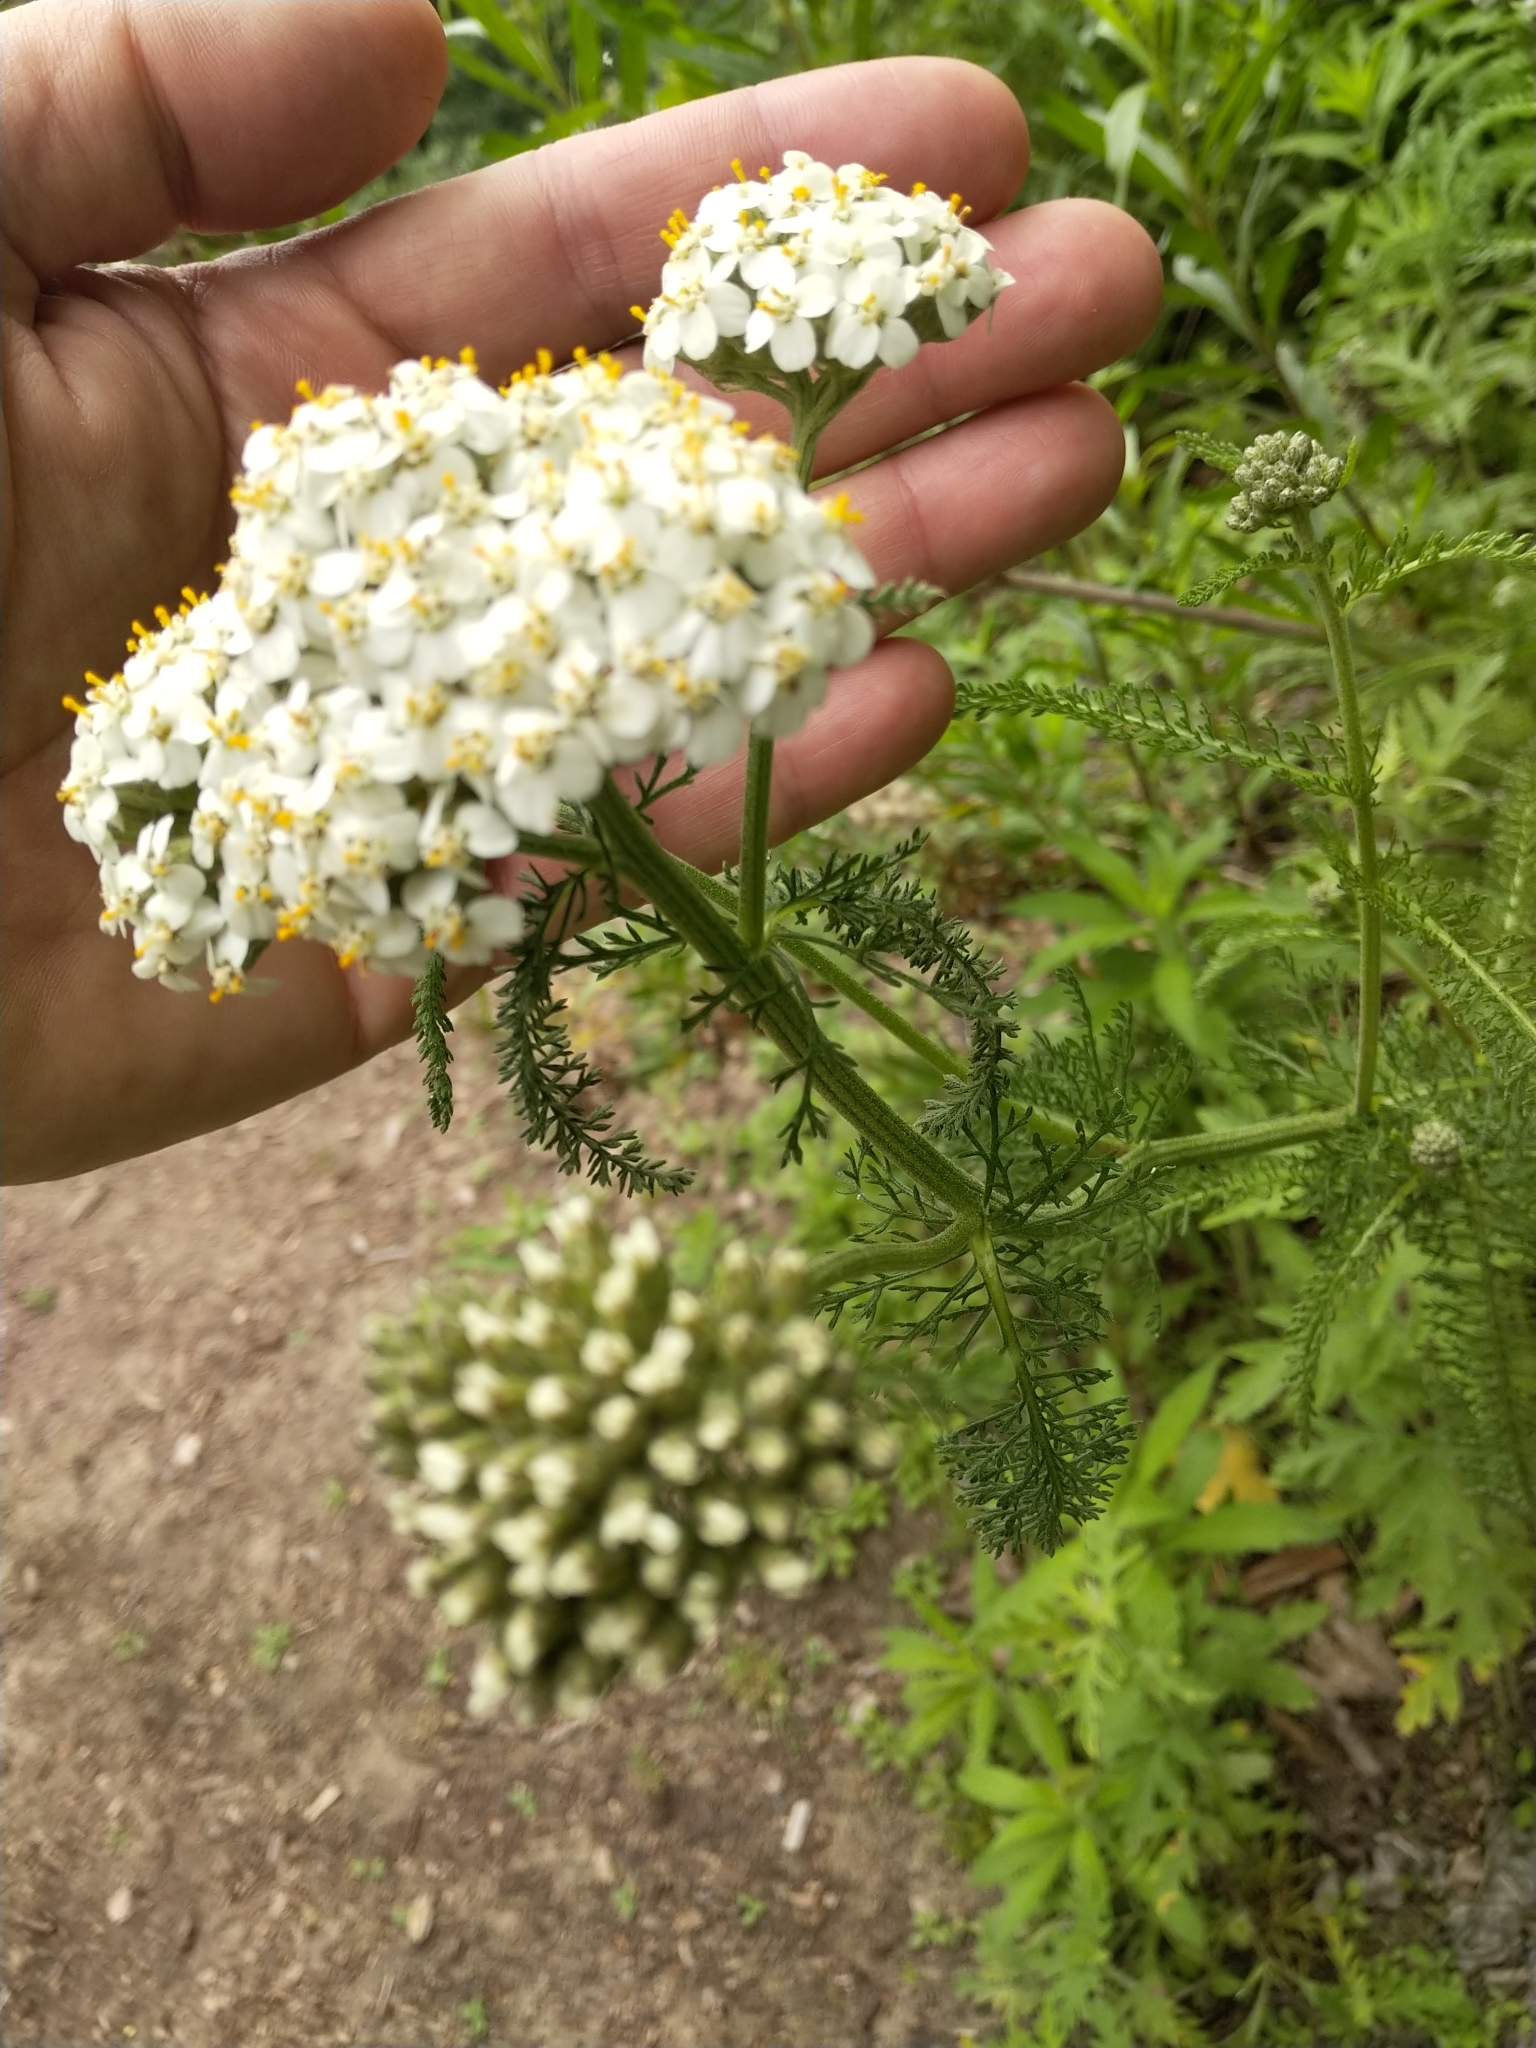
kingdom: Plantae
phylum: Tracheophyta
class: Magnoliopsida
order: Asterales
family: Asteraceae
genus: Achillea
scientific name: Achillea millefolium
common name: Yarrow
